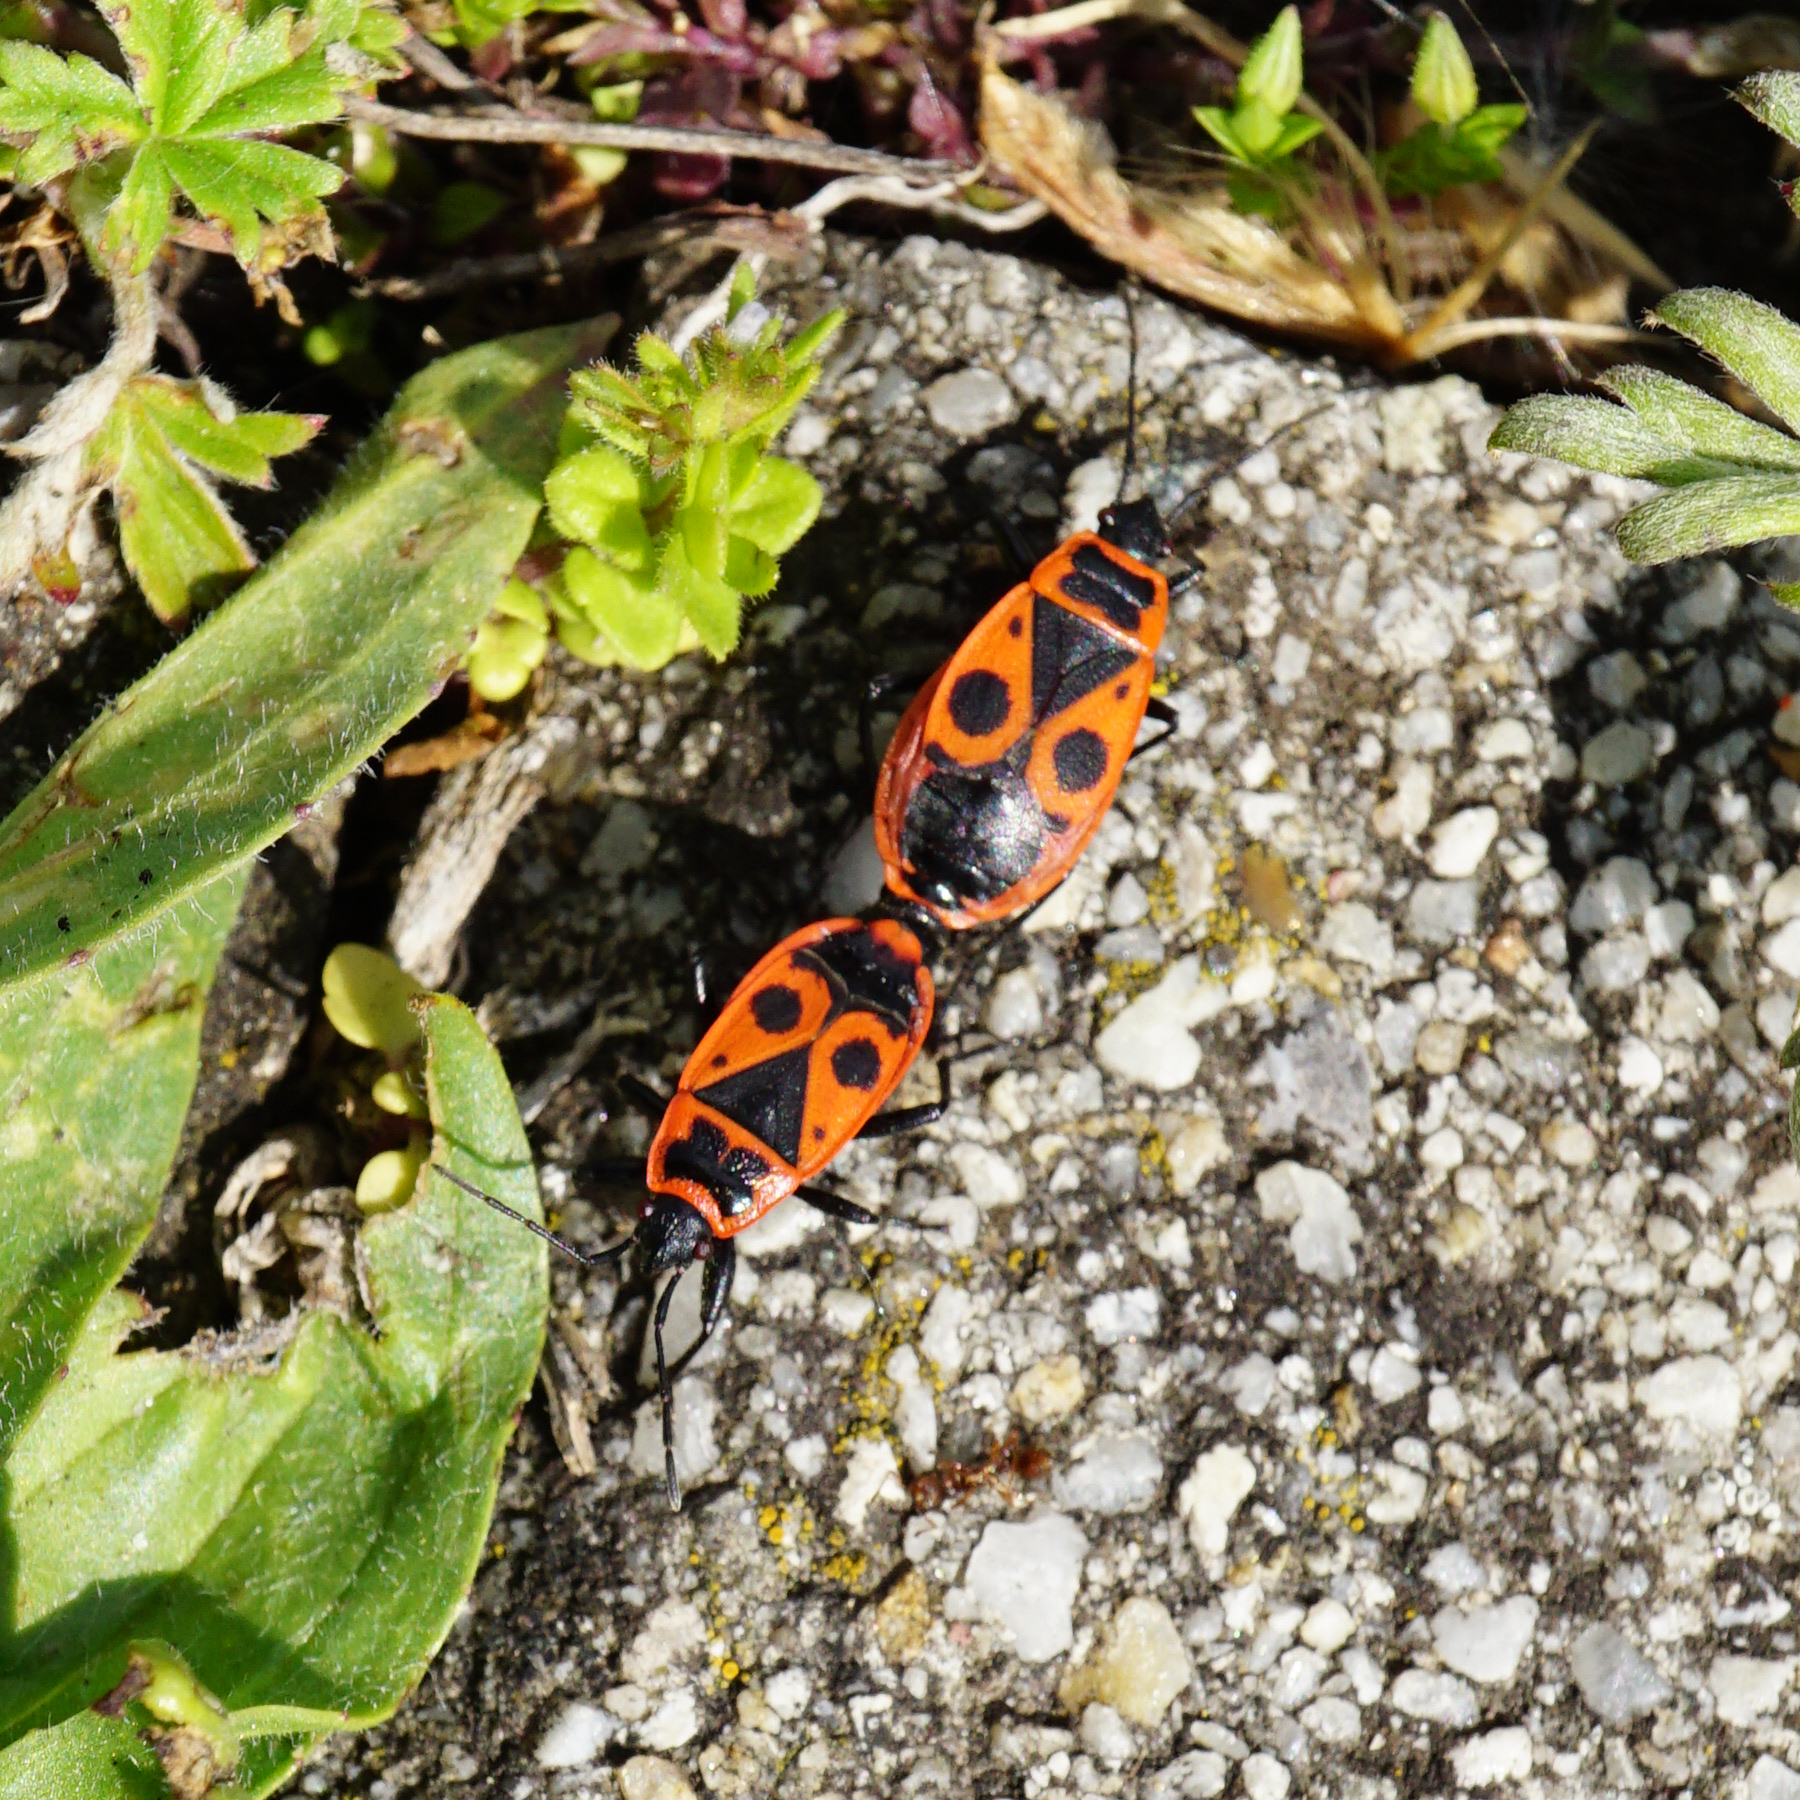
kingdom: Animalia
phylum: Arthropoda
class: Insecta
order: Hemiptera
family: Pyrrhocoridae
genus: Pyrrhocoris
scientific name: Pyrrhocoris apterus
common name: Firebug
